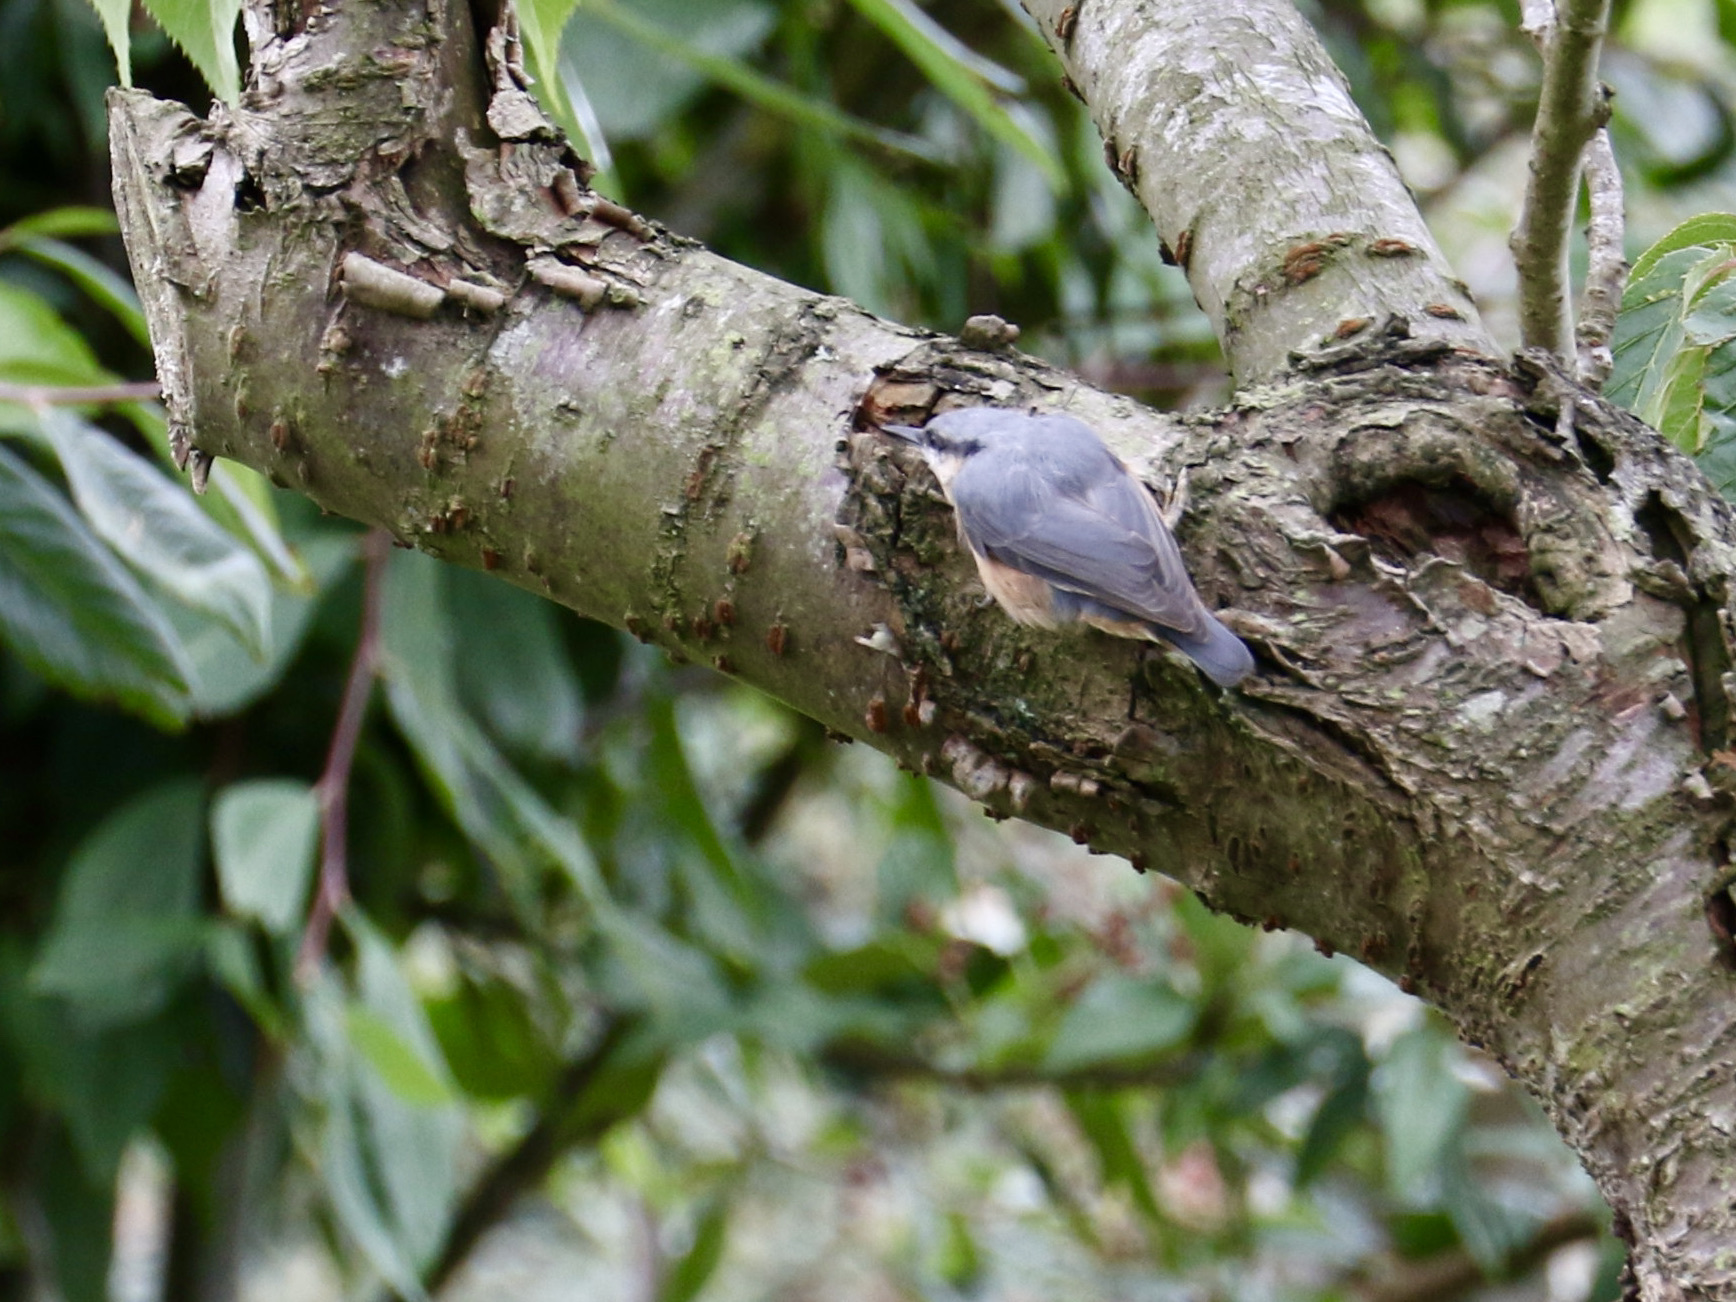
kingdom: Animalia
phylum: Chordata
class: Aves
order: Passeriformes
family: Sittidae
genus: Sitta
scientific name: Sitta europaea
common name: Eurasian nuthatch
